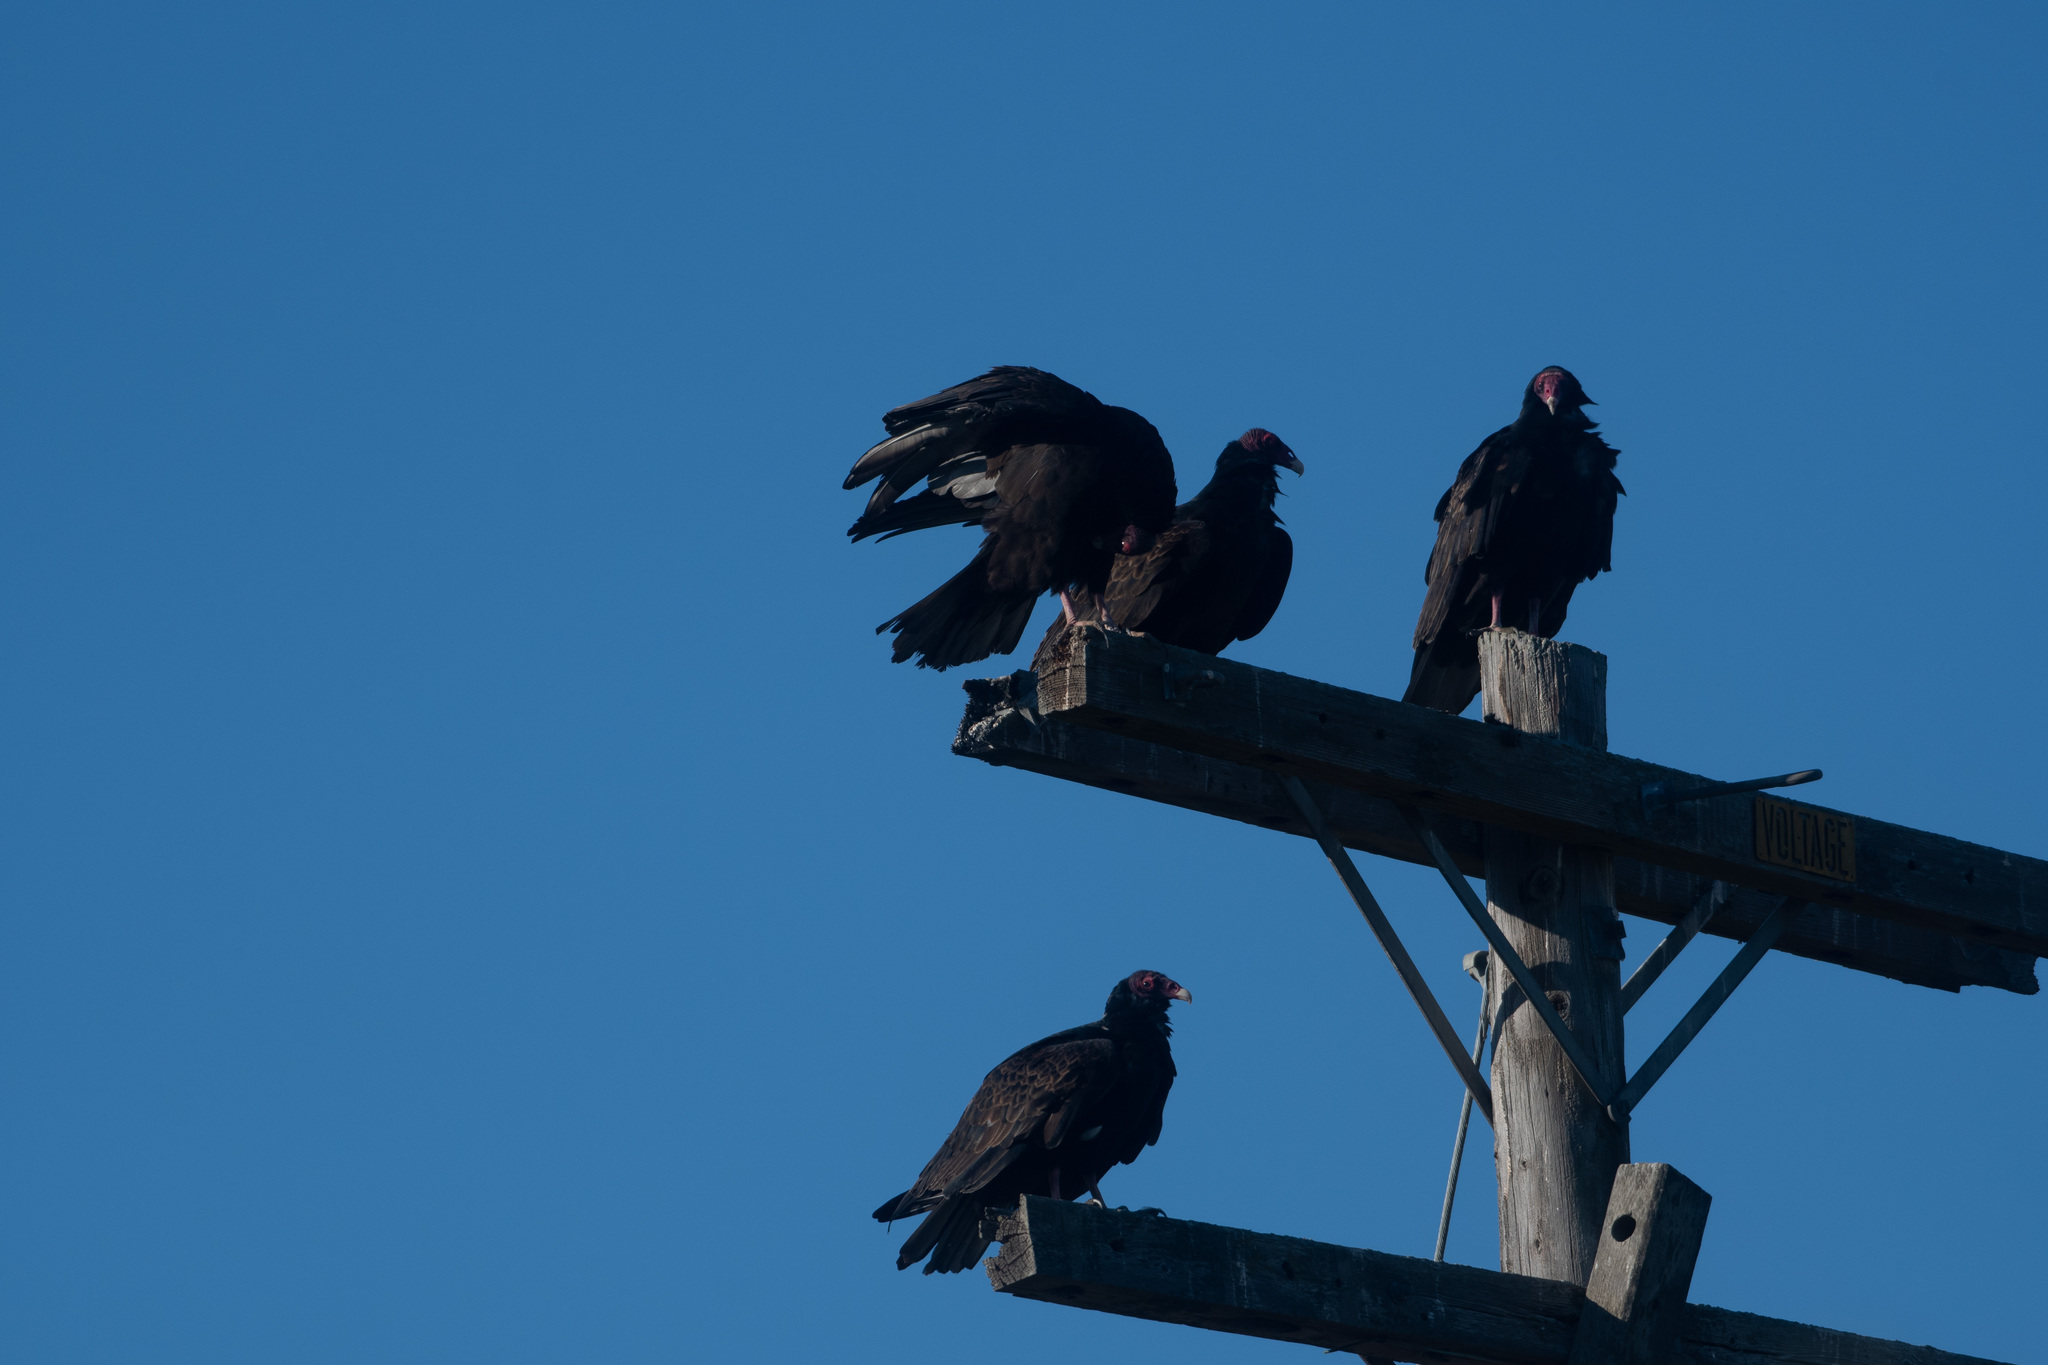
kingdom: Animalia
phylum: Chordata
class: Aves
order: Accipitriformes
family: Cathartidae
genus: Cathartes
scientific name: Cathartes aura
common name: Turkey vulture
